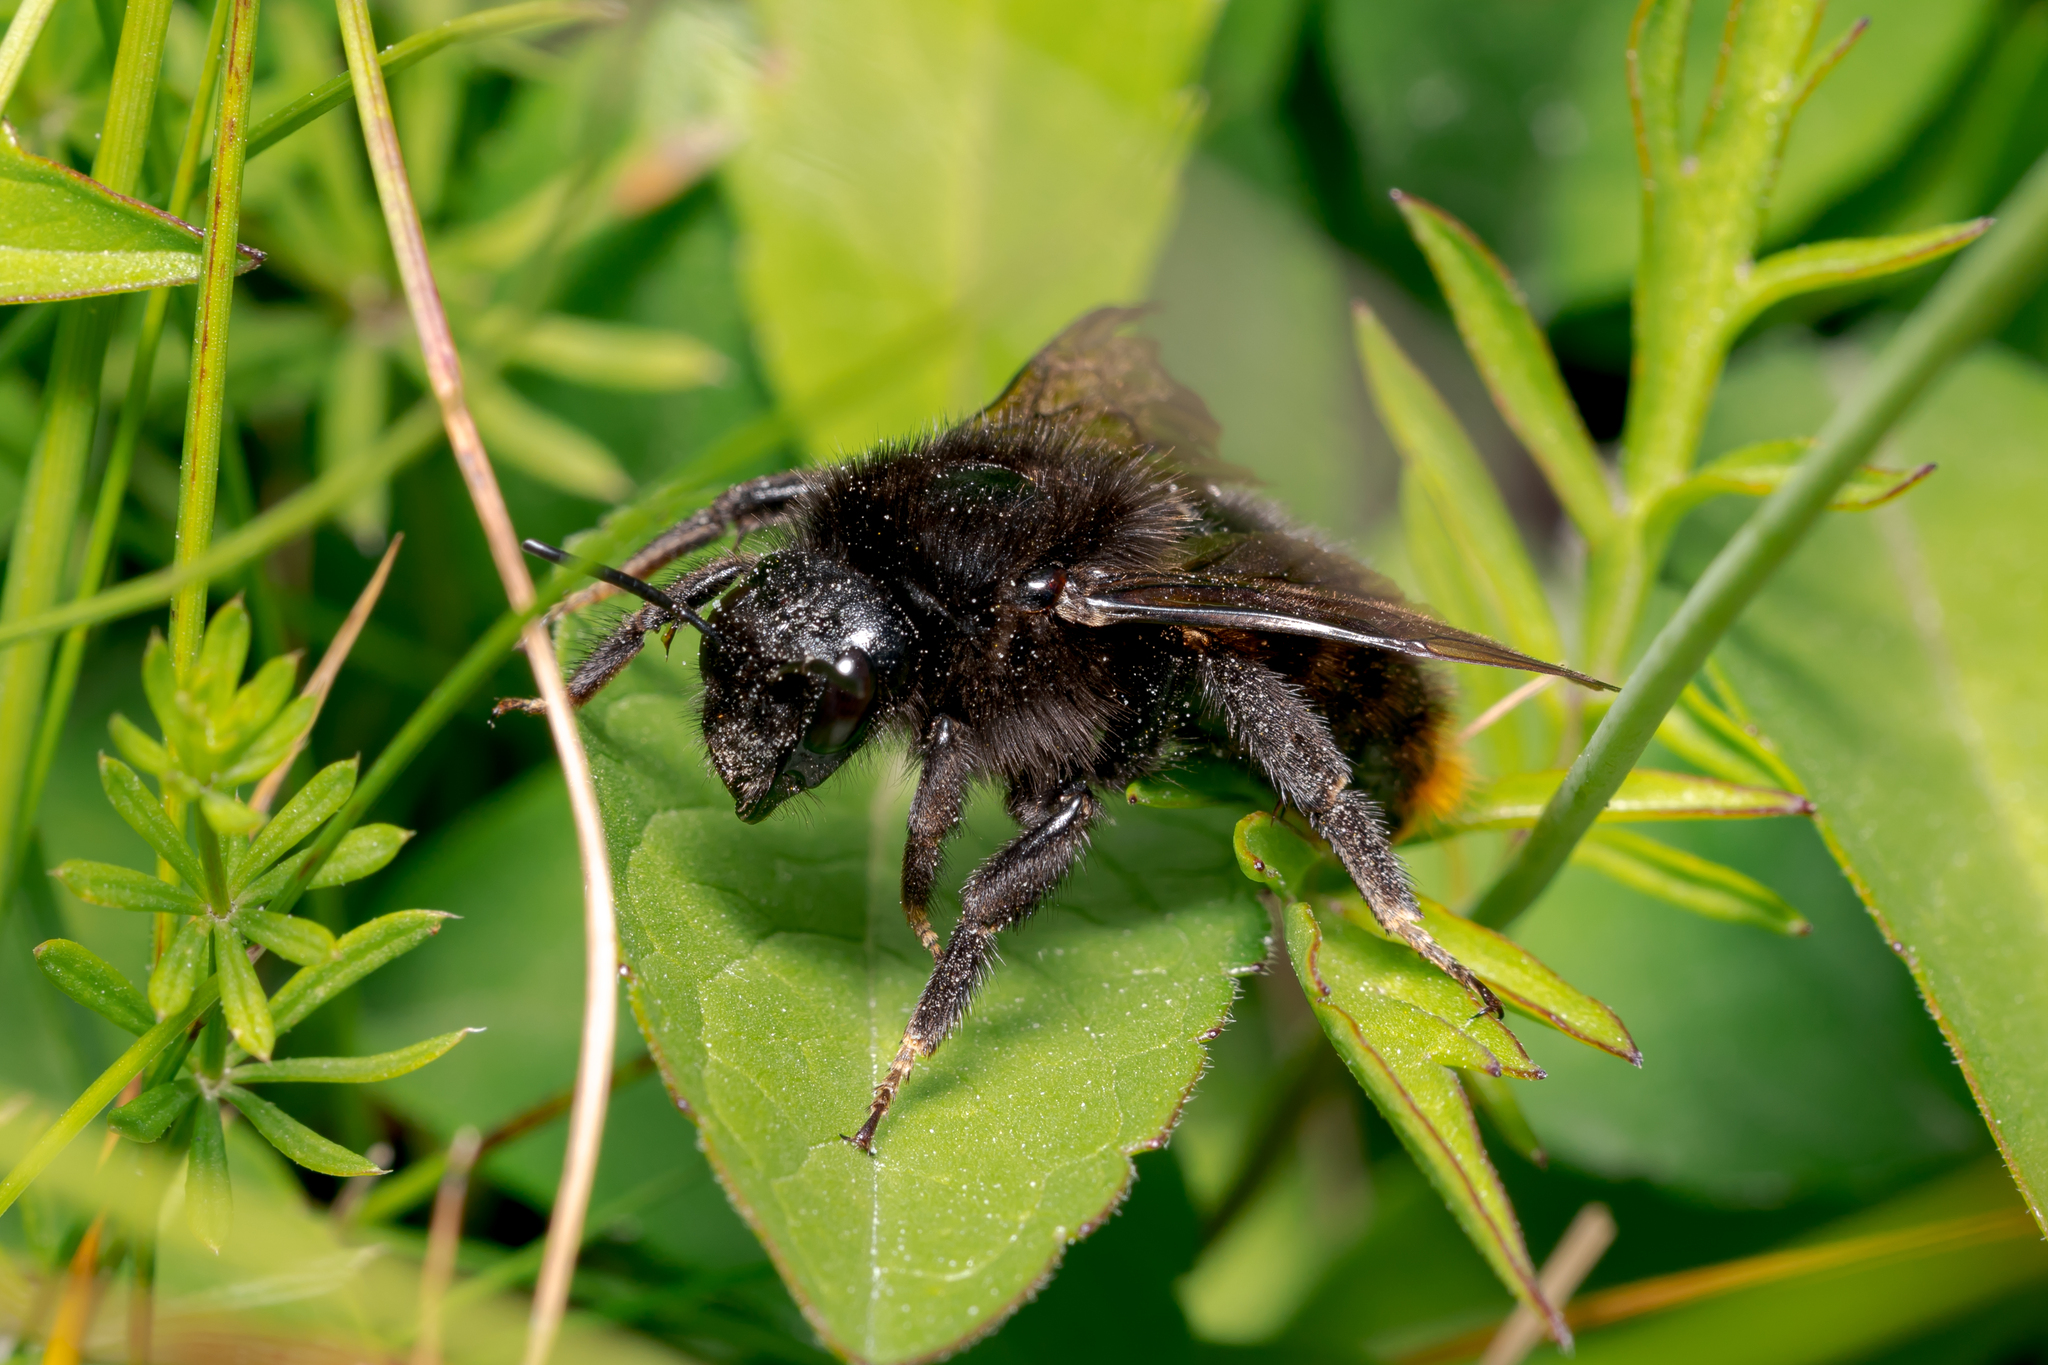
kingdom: Animalia
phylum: Arthropoda
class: Insecta
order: Hymenoptera
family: Apidae
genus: Bombus
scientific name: Bombus rupestris
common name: Hill cuckoo-bee
